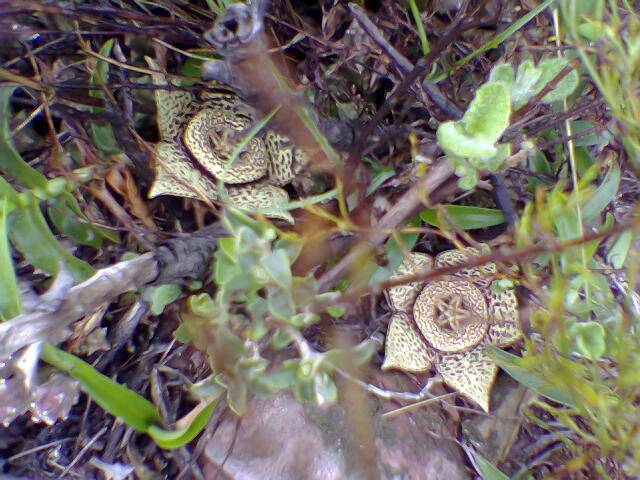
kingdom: Plantae
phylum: Tracheophyta
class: Magnoliopsida
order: Gentianales
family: Apocynaceae
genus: Ceropegia
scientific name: Ceropegia mixta
